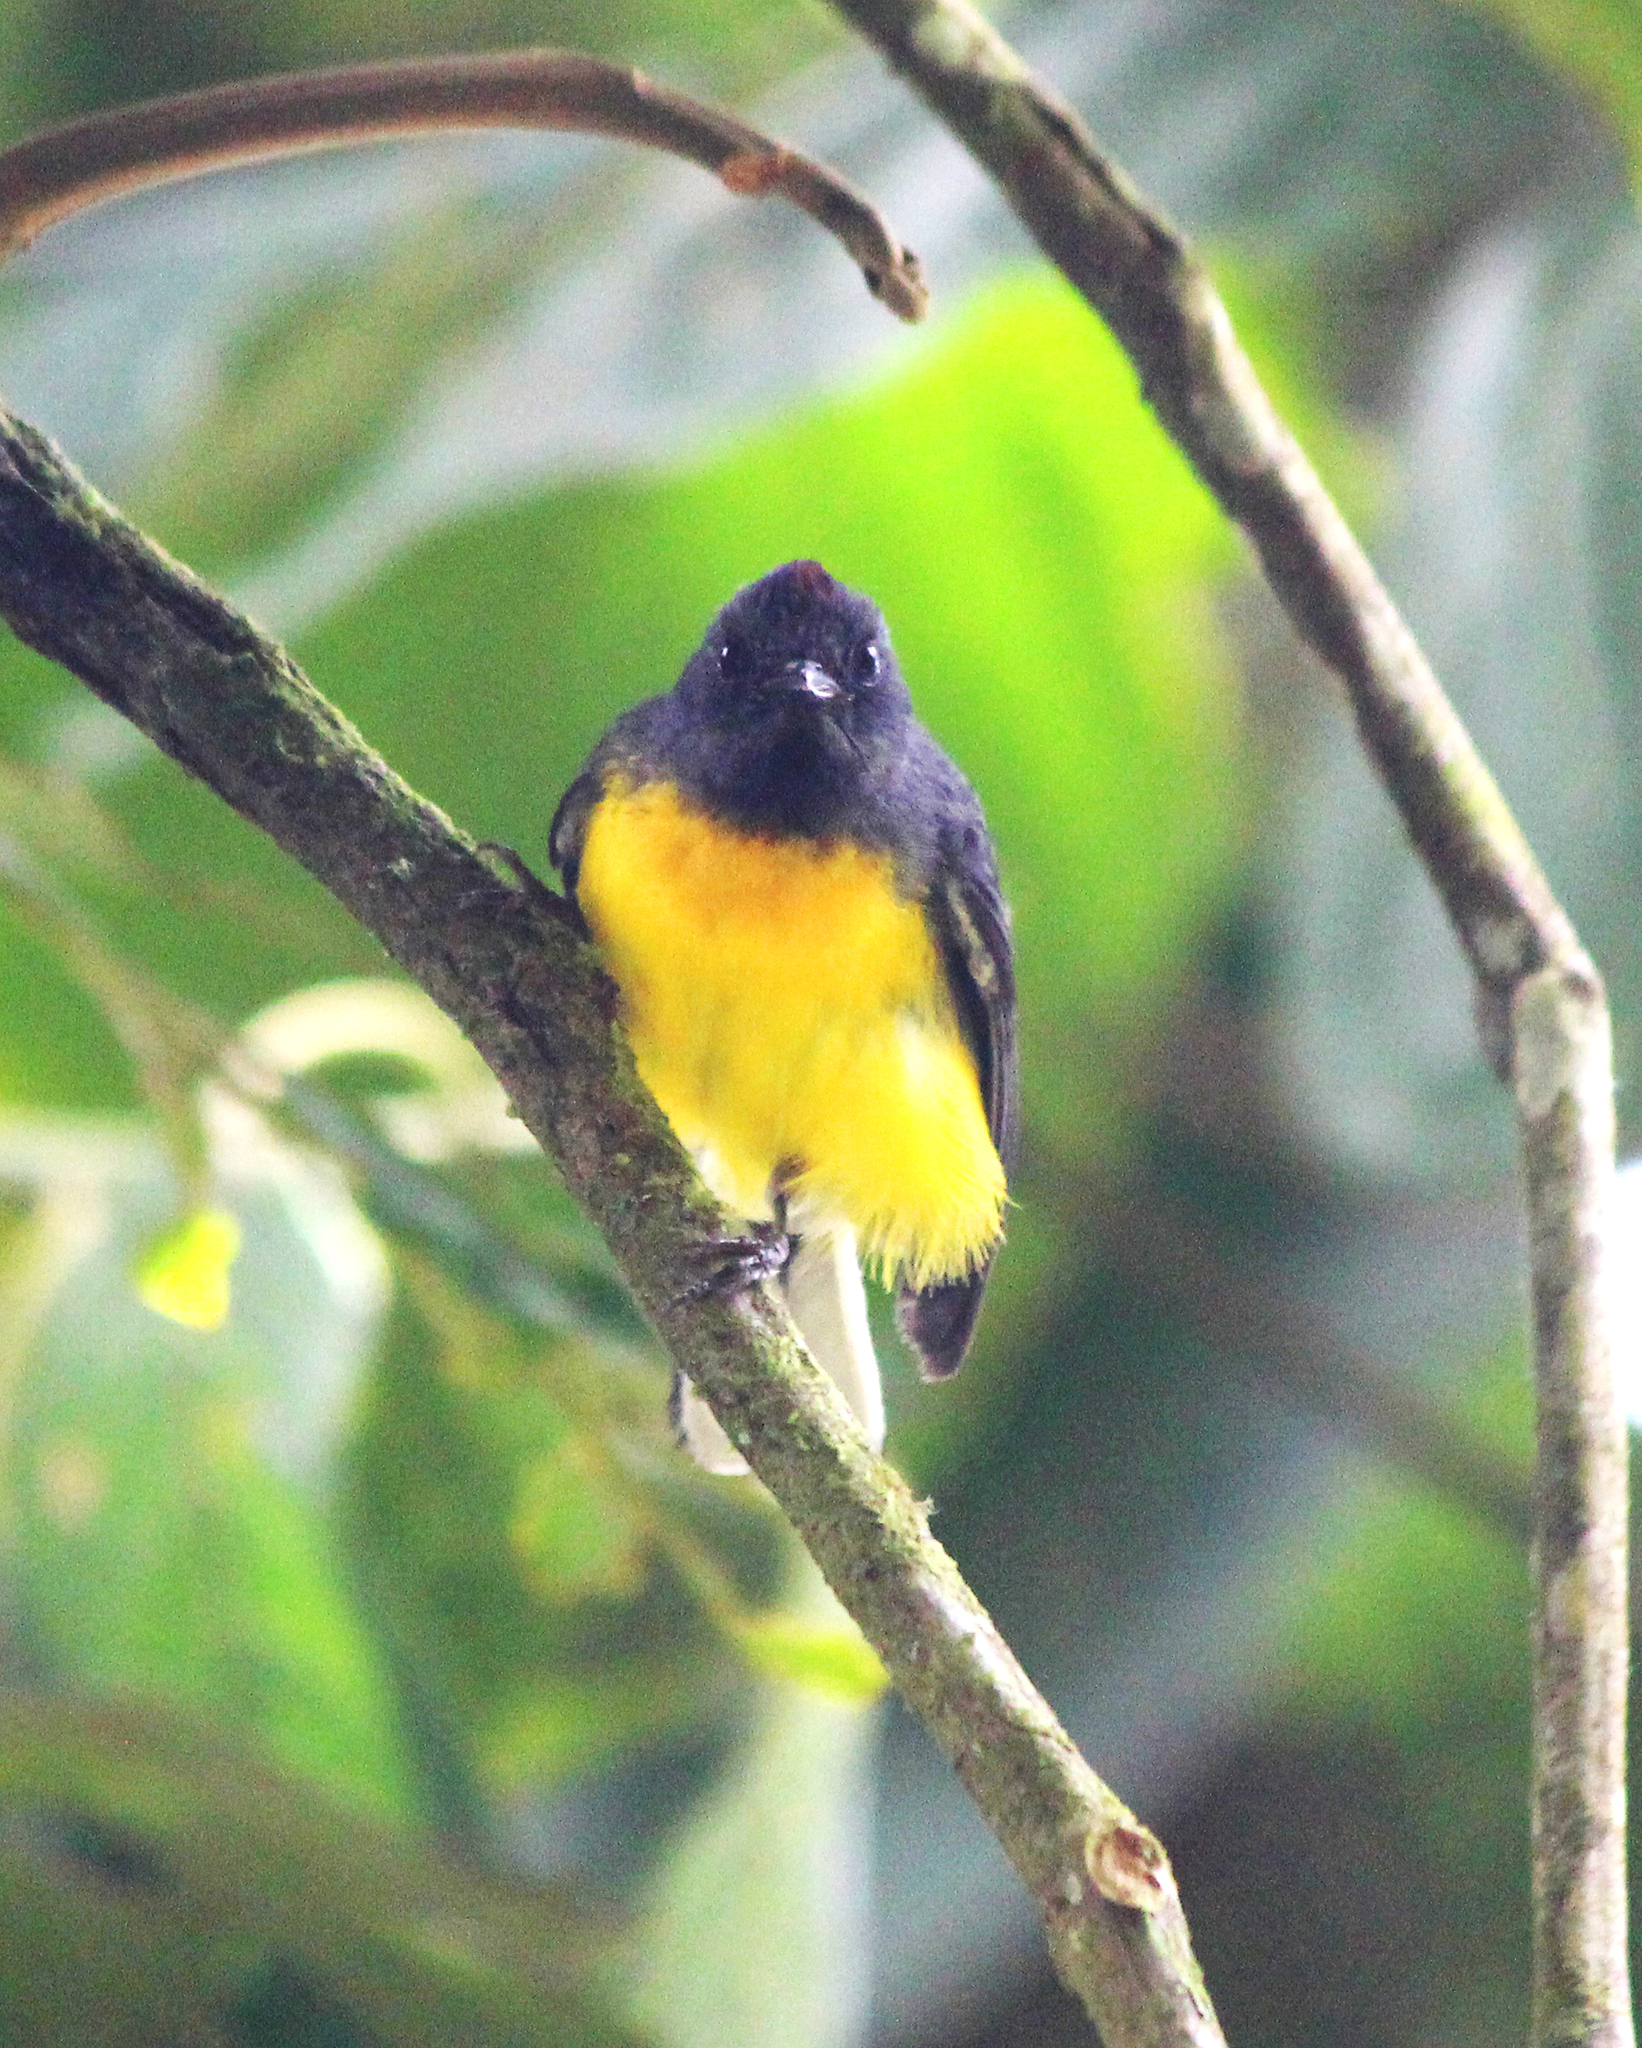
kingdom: Animalia
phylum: Chordata
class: Aves
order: Passeriformes
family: Parulidae
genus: Myioborus
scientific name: Myioborus miniatus
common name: Slate-throated redstart
